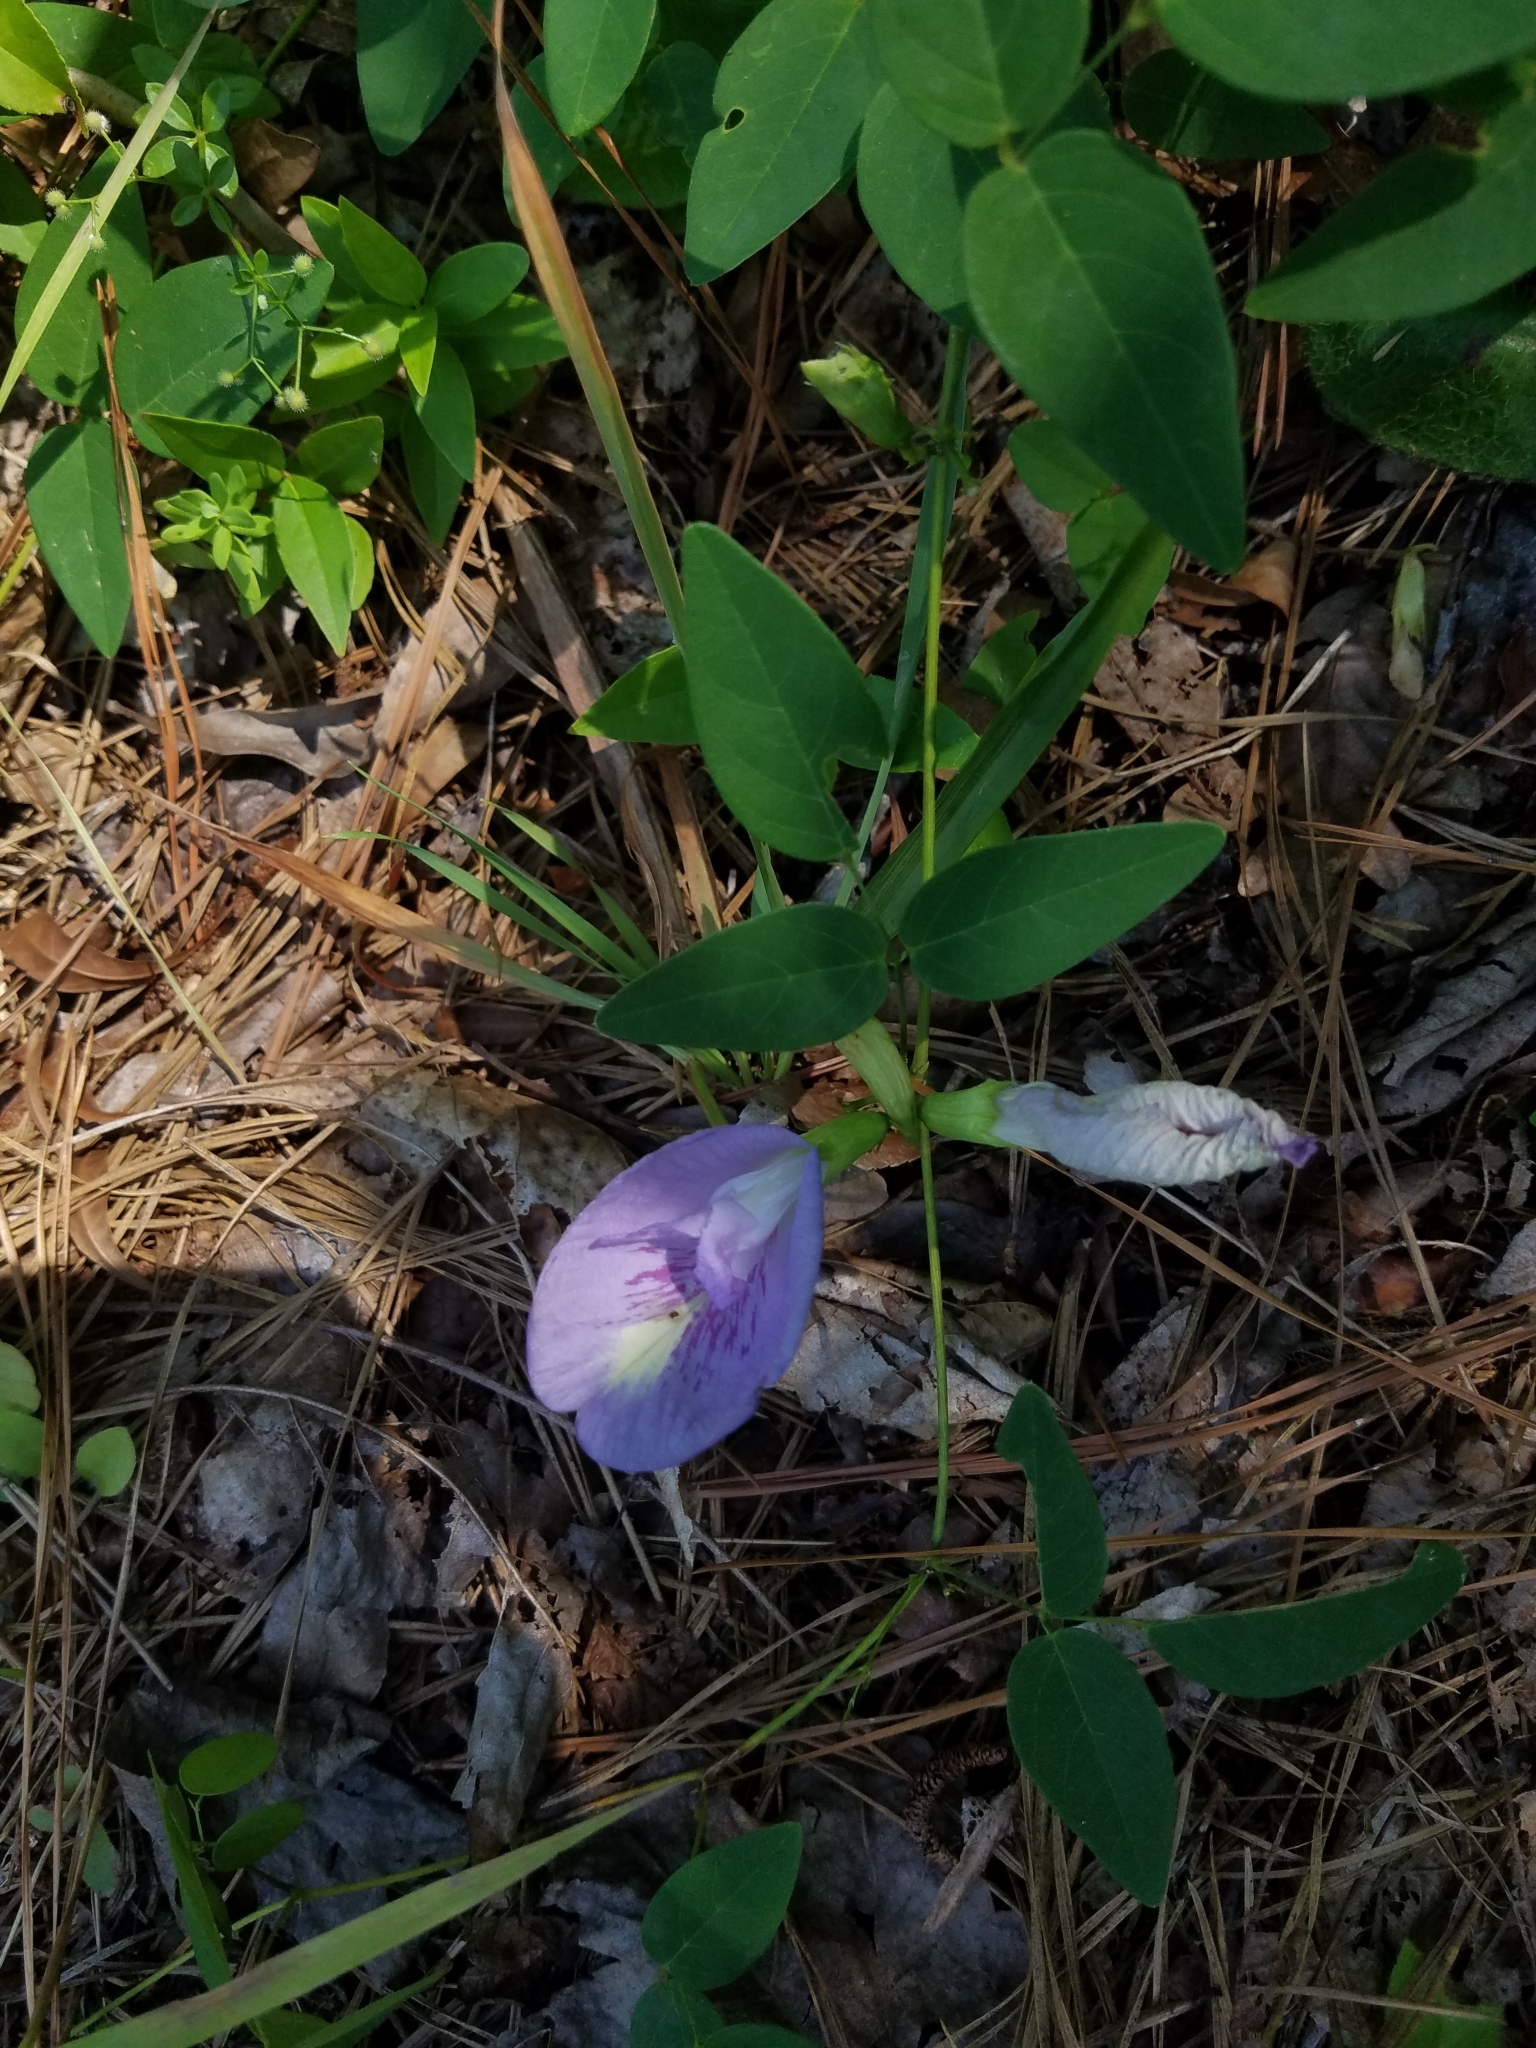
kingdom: Plantae
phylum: Tracheophyta
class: Magnoliopsida
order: Fabales
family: Fabaceae
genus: Clitoria
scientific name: Clitoria mariana
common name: Butterfly-pea
